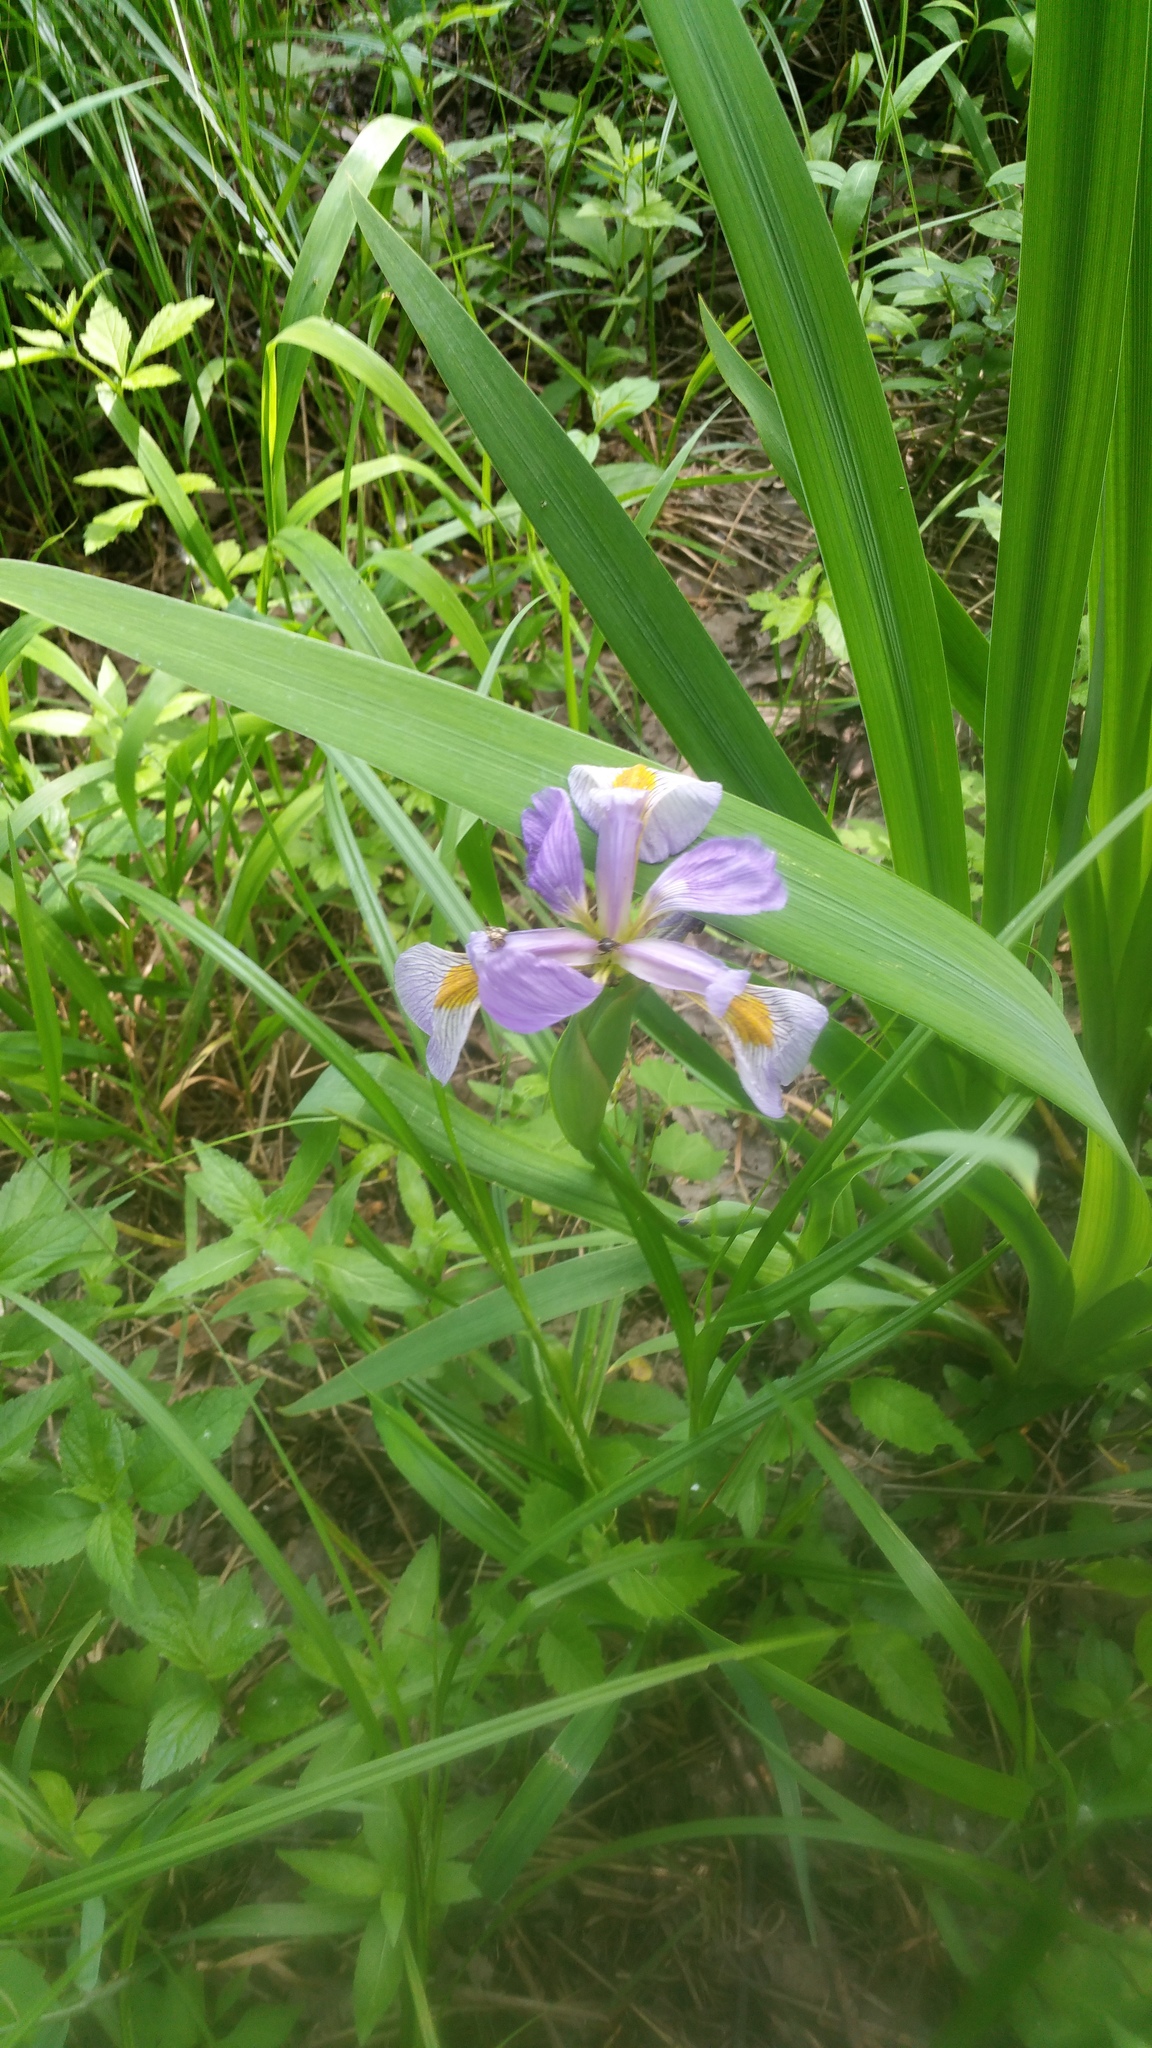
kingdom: Plantae
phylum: Tracheophyta
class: Liliopsida
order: Asparagales
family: Iridaceae
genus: Iris
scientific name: Iris virginica
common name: Southern blue flag
